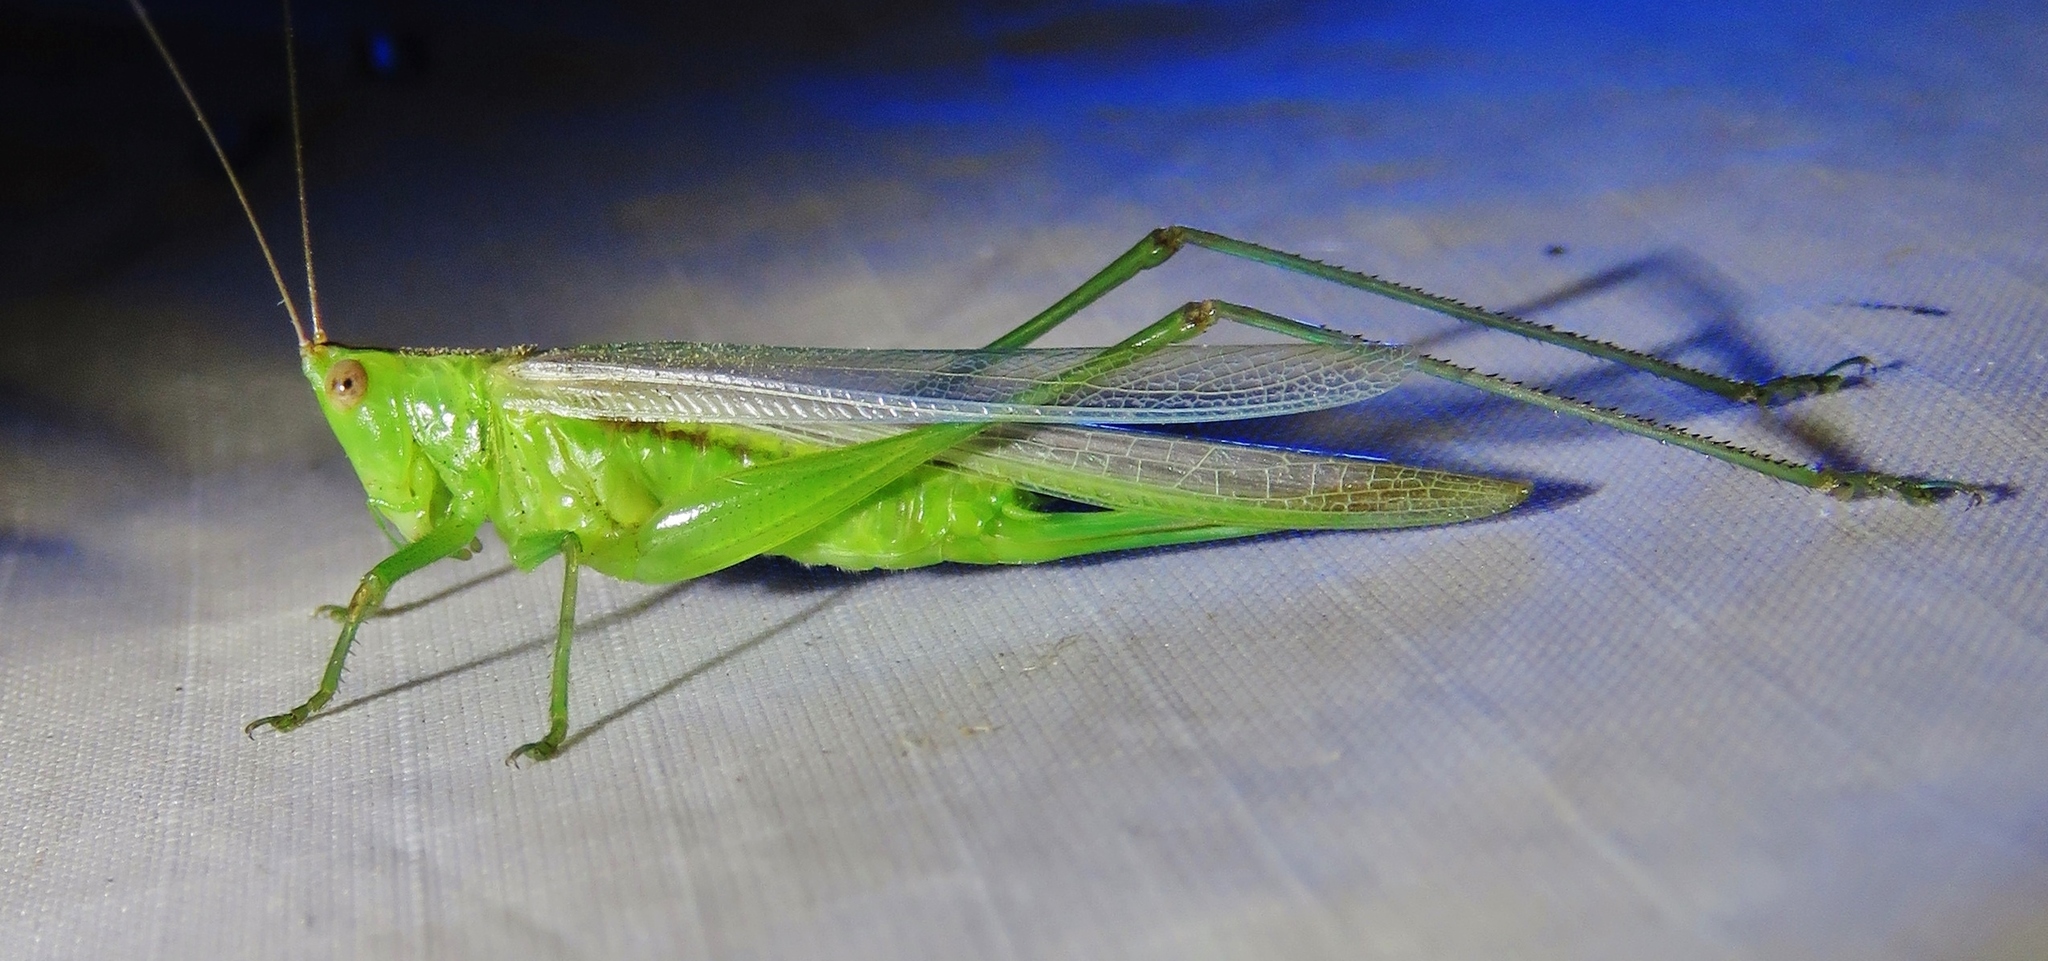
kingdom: Animalia
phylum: Arthropoda
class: Insecta
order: Orthoptera
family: Tettigoniidae
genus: Conocephalus
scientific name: Conocephalus fasciatus
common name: Slender meadow katydid
